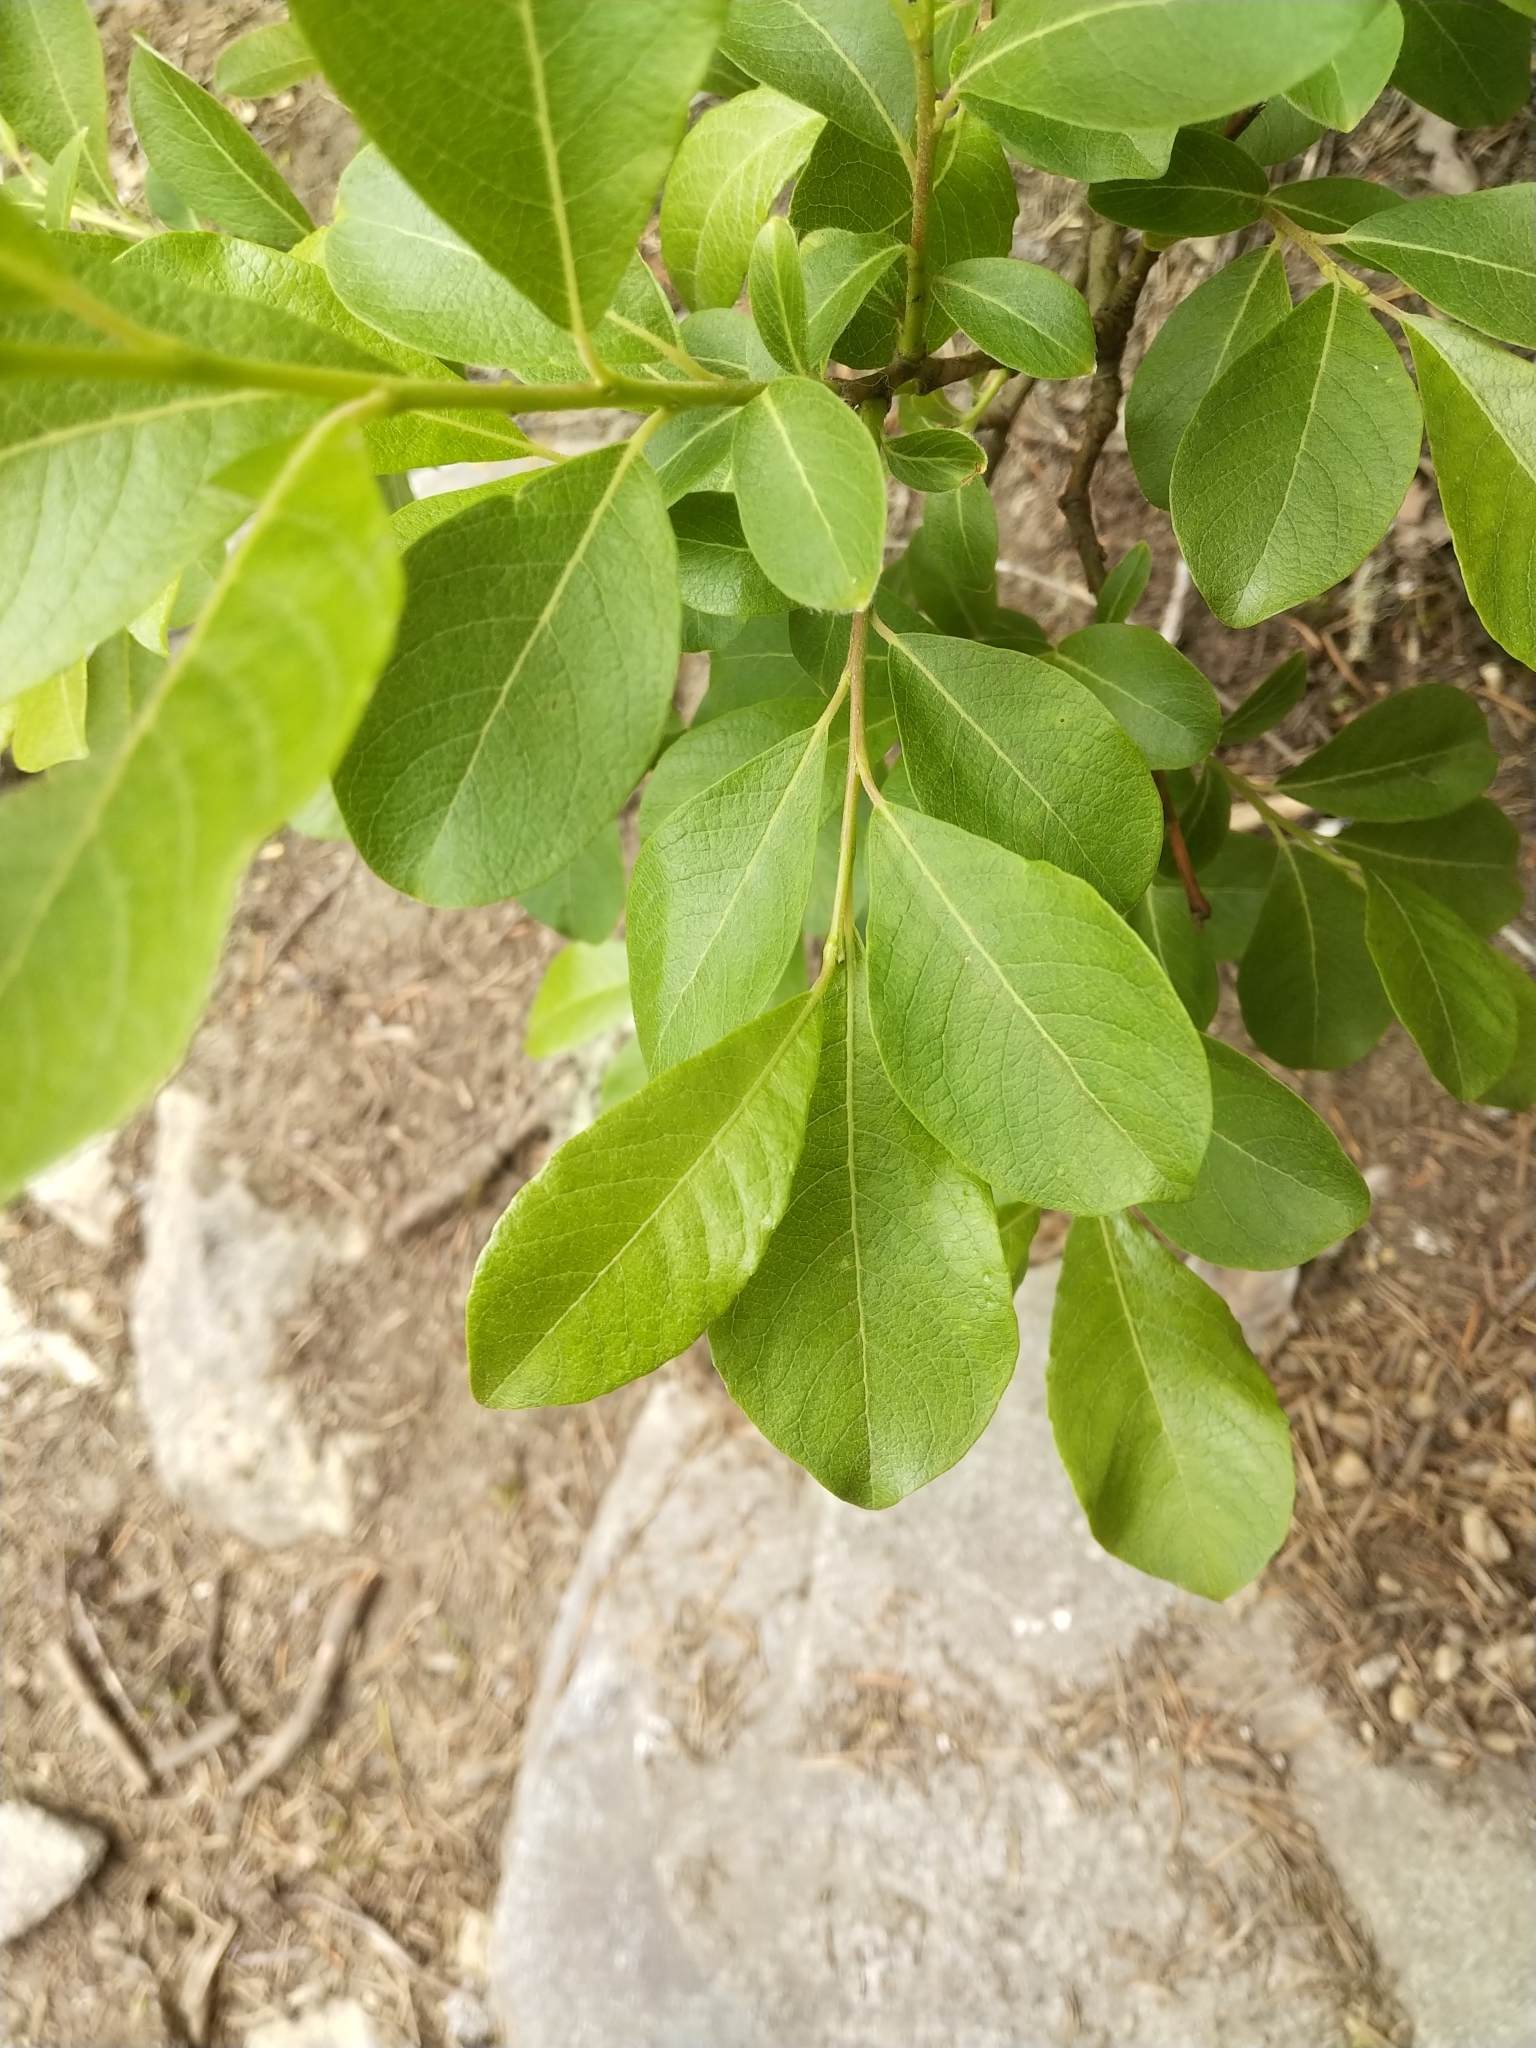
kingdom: Plantae
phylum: Tracheophyta
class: Magnoliopsida
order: Malpighiales
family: Salicaceae
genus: Salix
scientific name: Salix scouleriana
